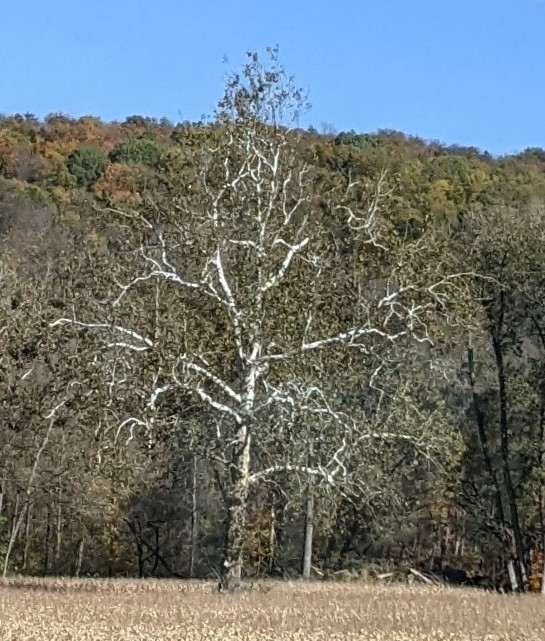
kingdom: Plantae
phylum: Tracheophyta
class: Magnoliopsida
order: Proteales
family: Platanaceae
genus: Platanus
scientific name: Platanus occidentalis
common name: American sycamore
